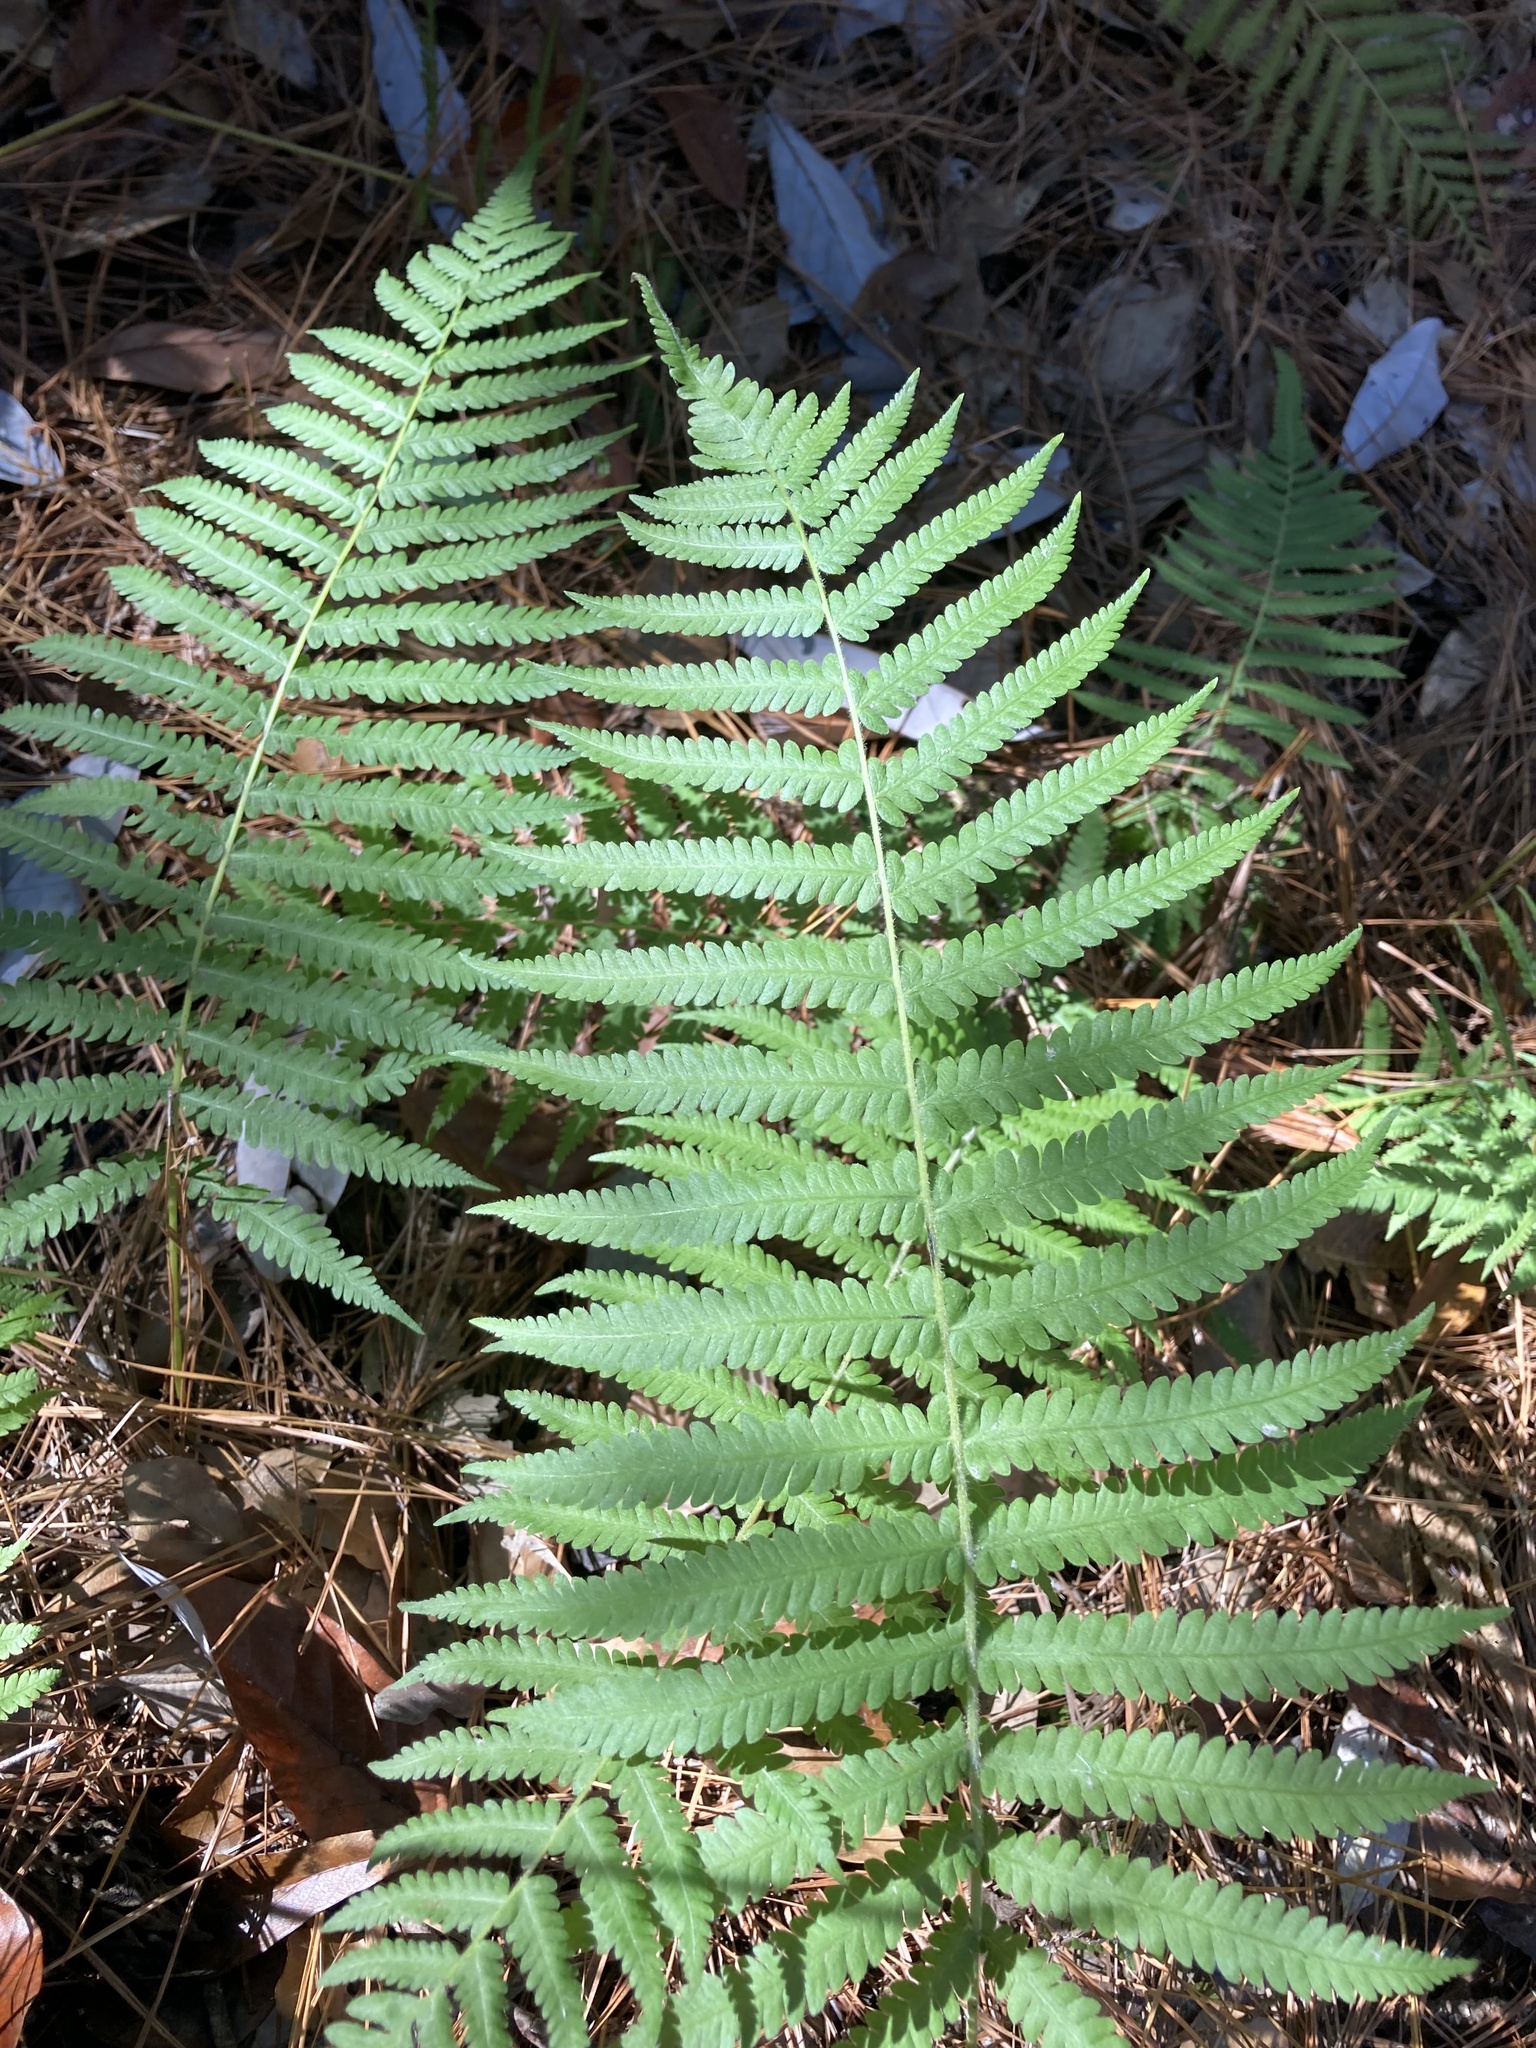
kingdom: Plantae
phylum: Tracheophyta
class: Polypodiopsida
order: Polypodiales
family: Thelypteridaceae
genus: Pelazoneuron
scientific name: Pelazoneuron kunthii
